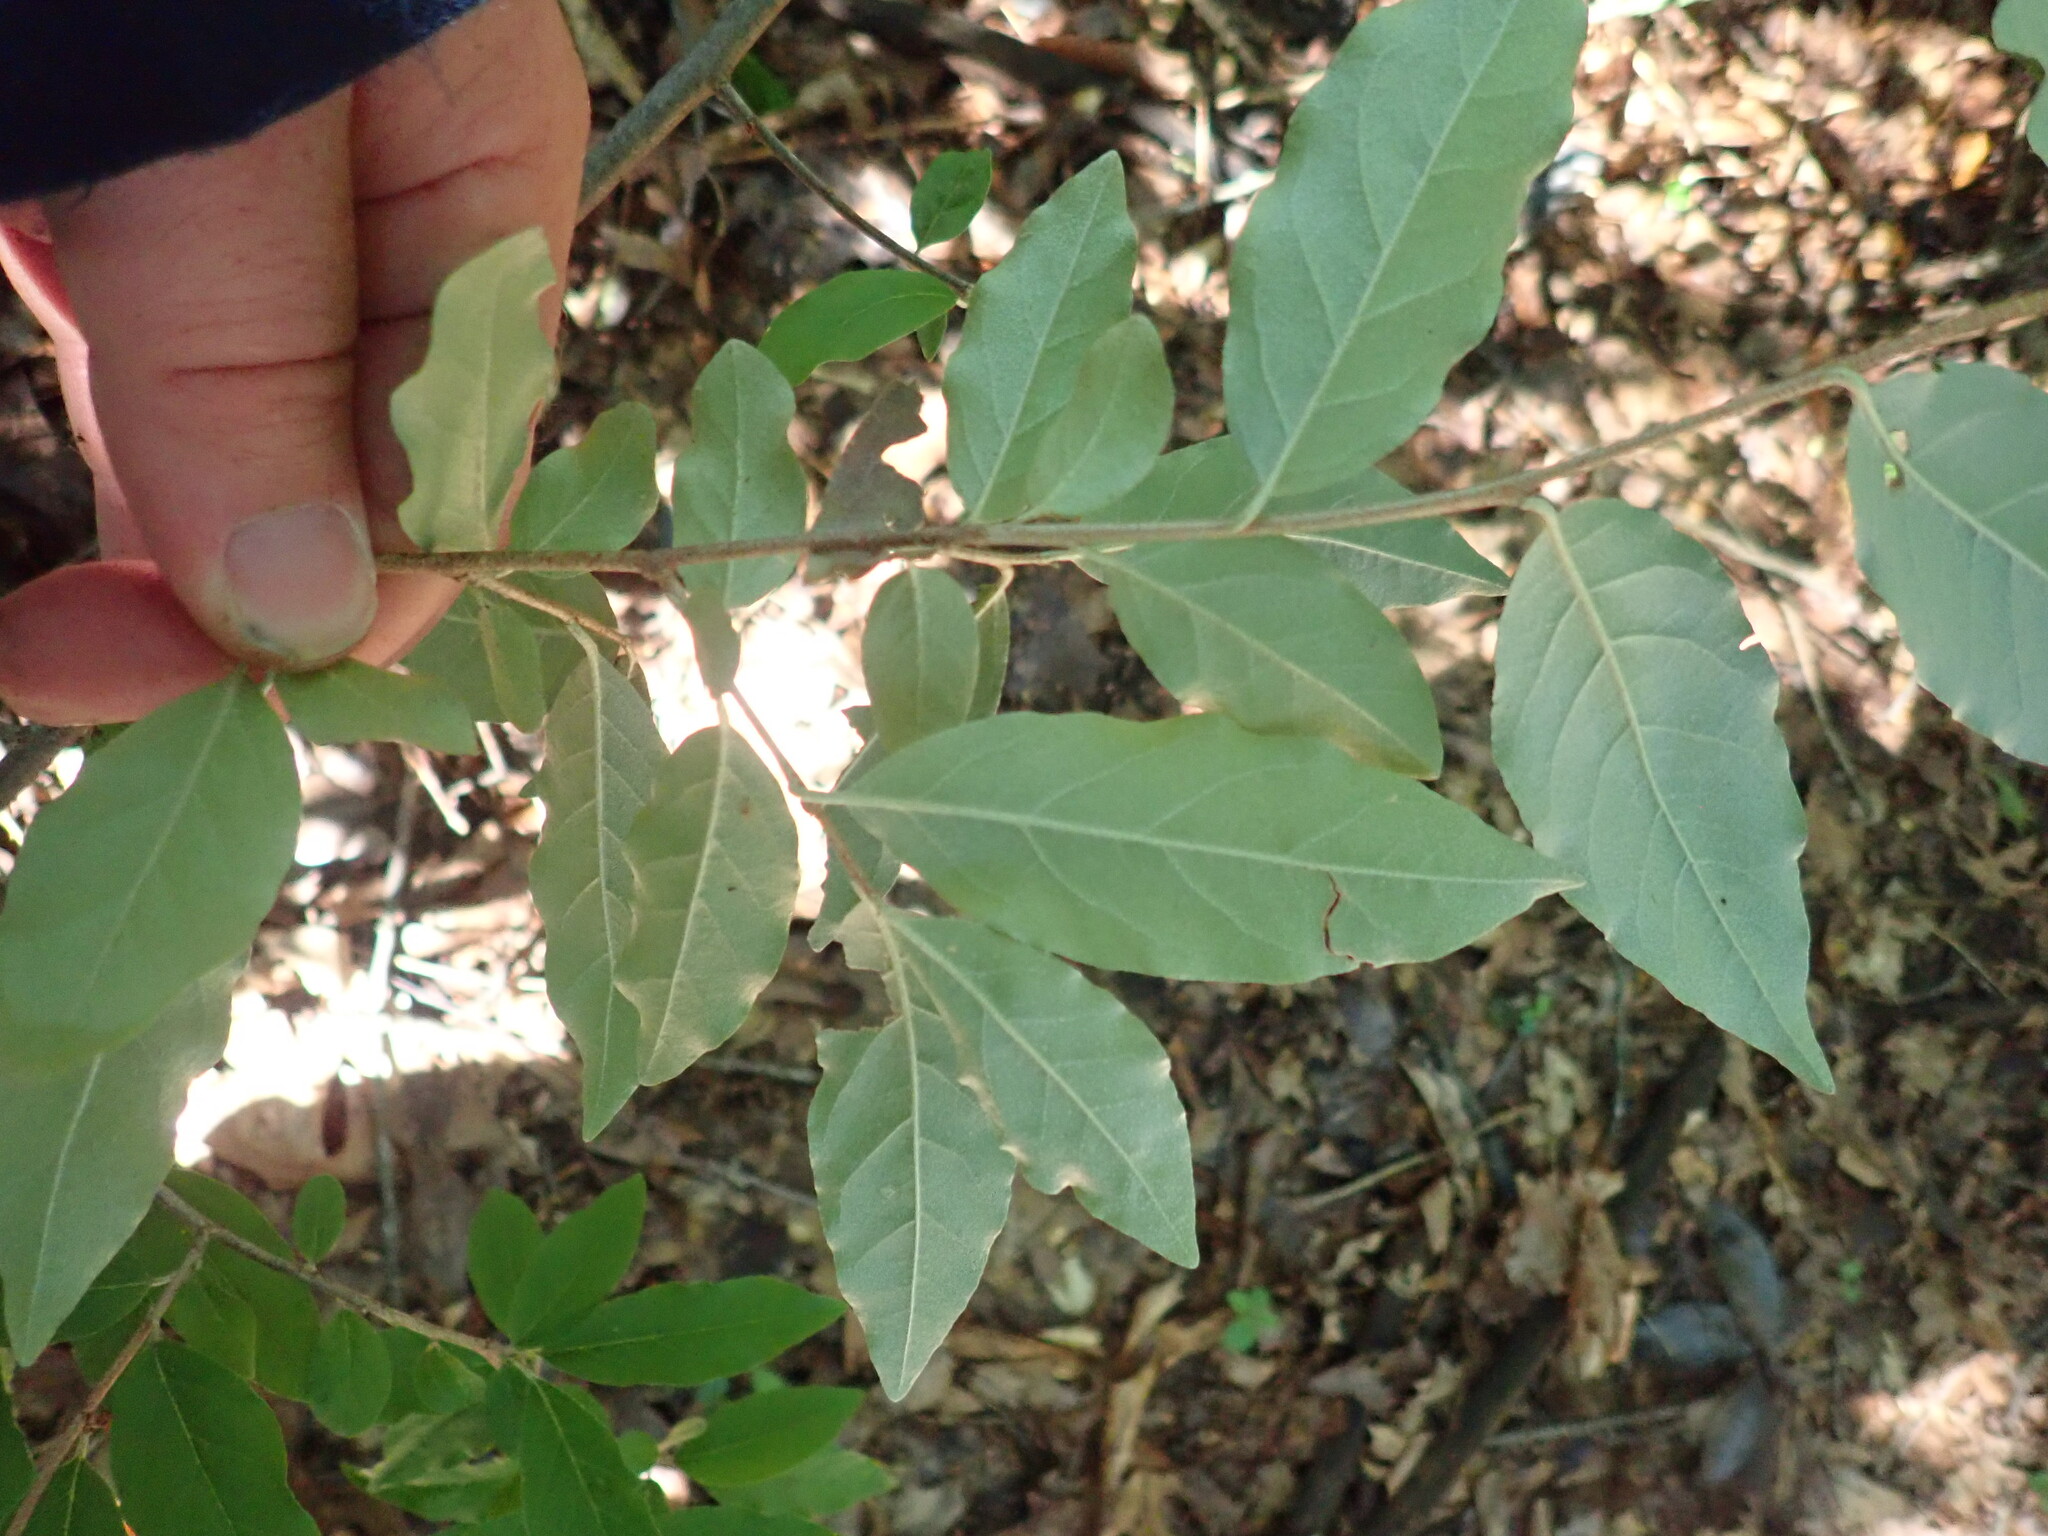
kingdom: Plantae
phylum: Tracheophyta
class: Magnoliopsida
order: Rosales
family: Elaeagnaceae
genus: Elaeagnus
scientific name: Elaeagnus umbellata
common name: Autumn olive
